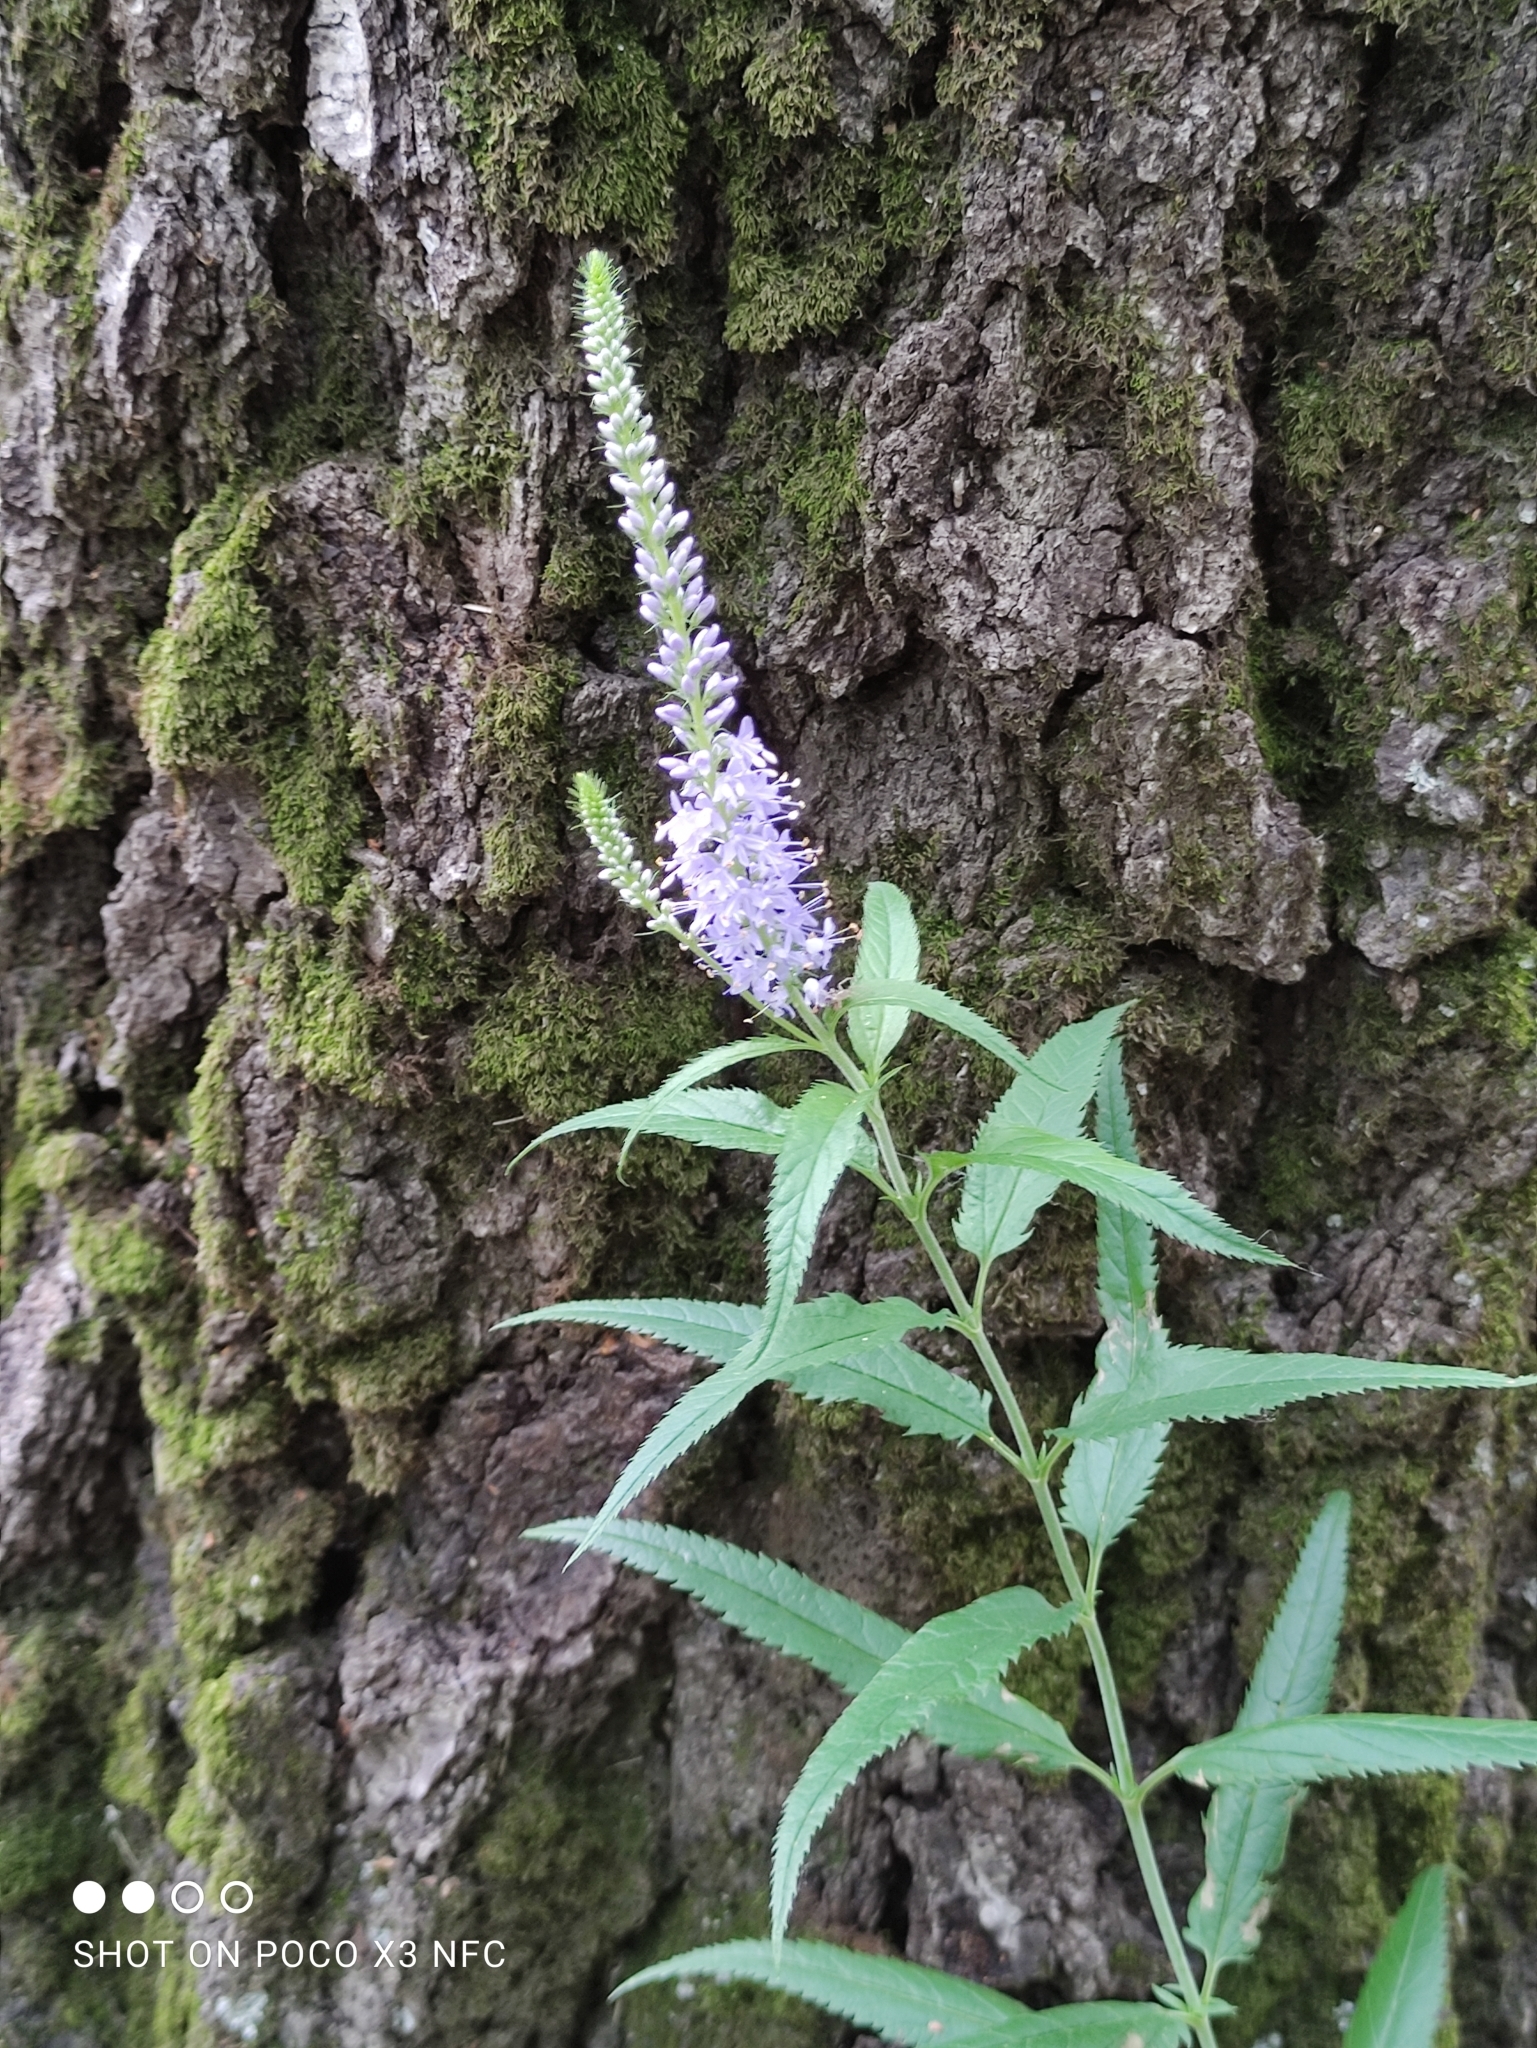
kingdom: Plantae
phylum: Tracheophyta
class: Magnoliopsida
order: Lamiales
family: Plantaginaceae
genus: Veronica
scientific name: Veronica longifolia
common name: Garden speedwell
